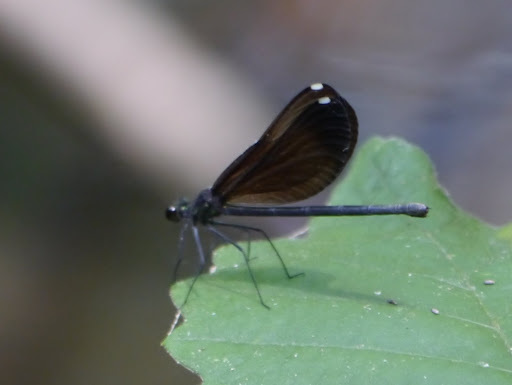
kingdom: Animalia
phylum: Arthropoda
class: Insecta
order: Odonata
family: Calopterygidae
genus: Calopteryx
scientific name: Calopteryx maculata
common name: Ebony jewelwing
